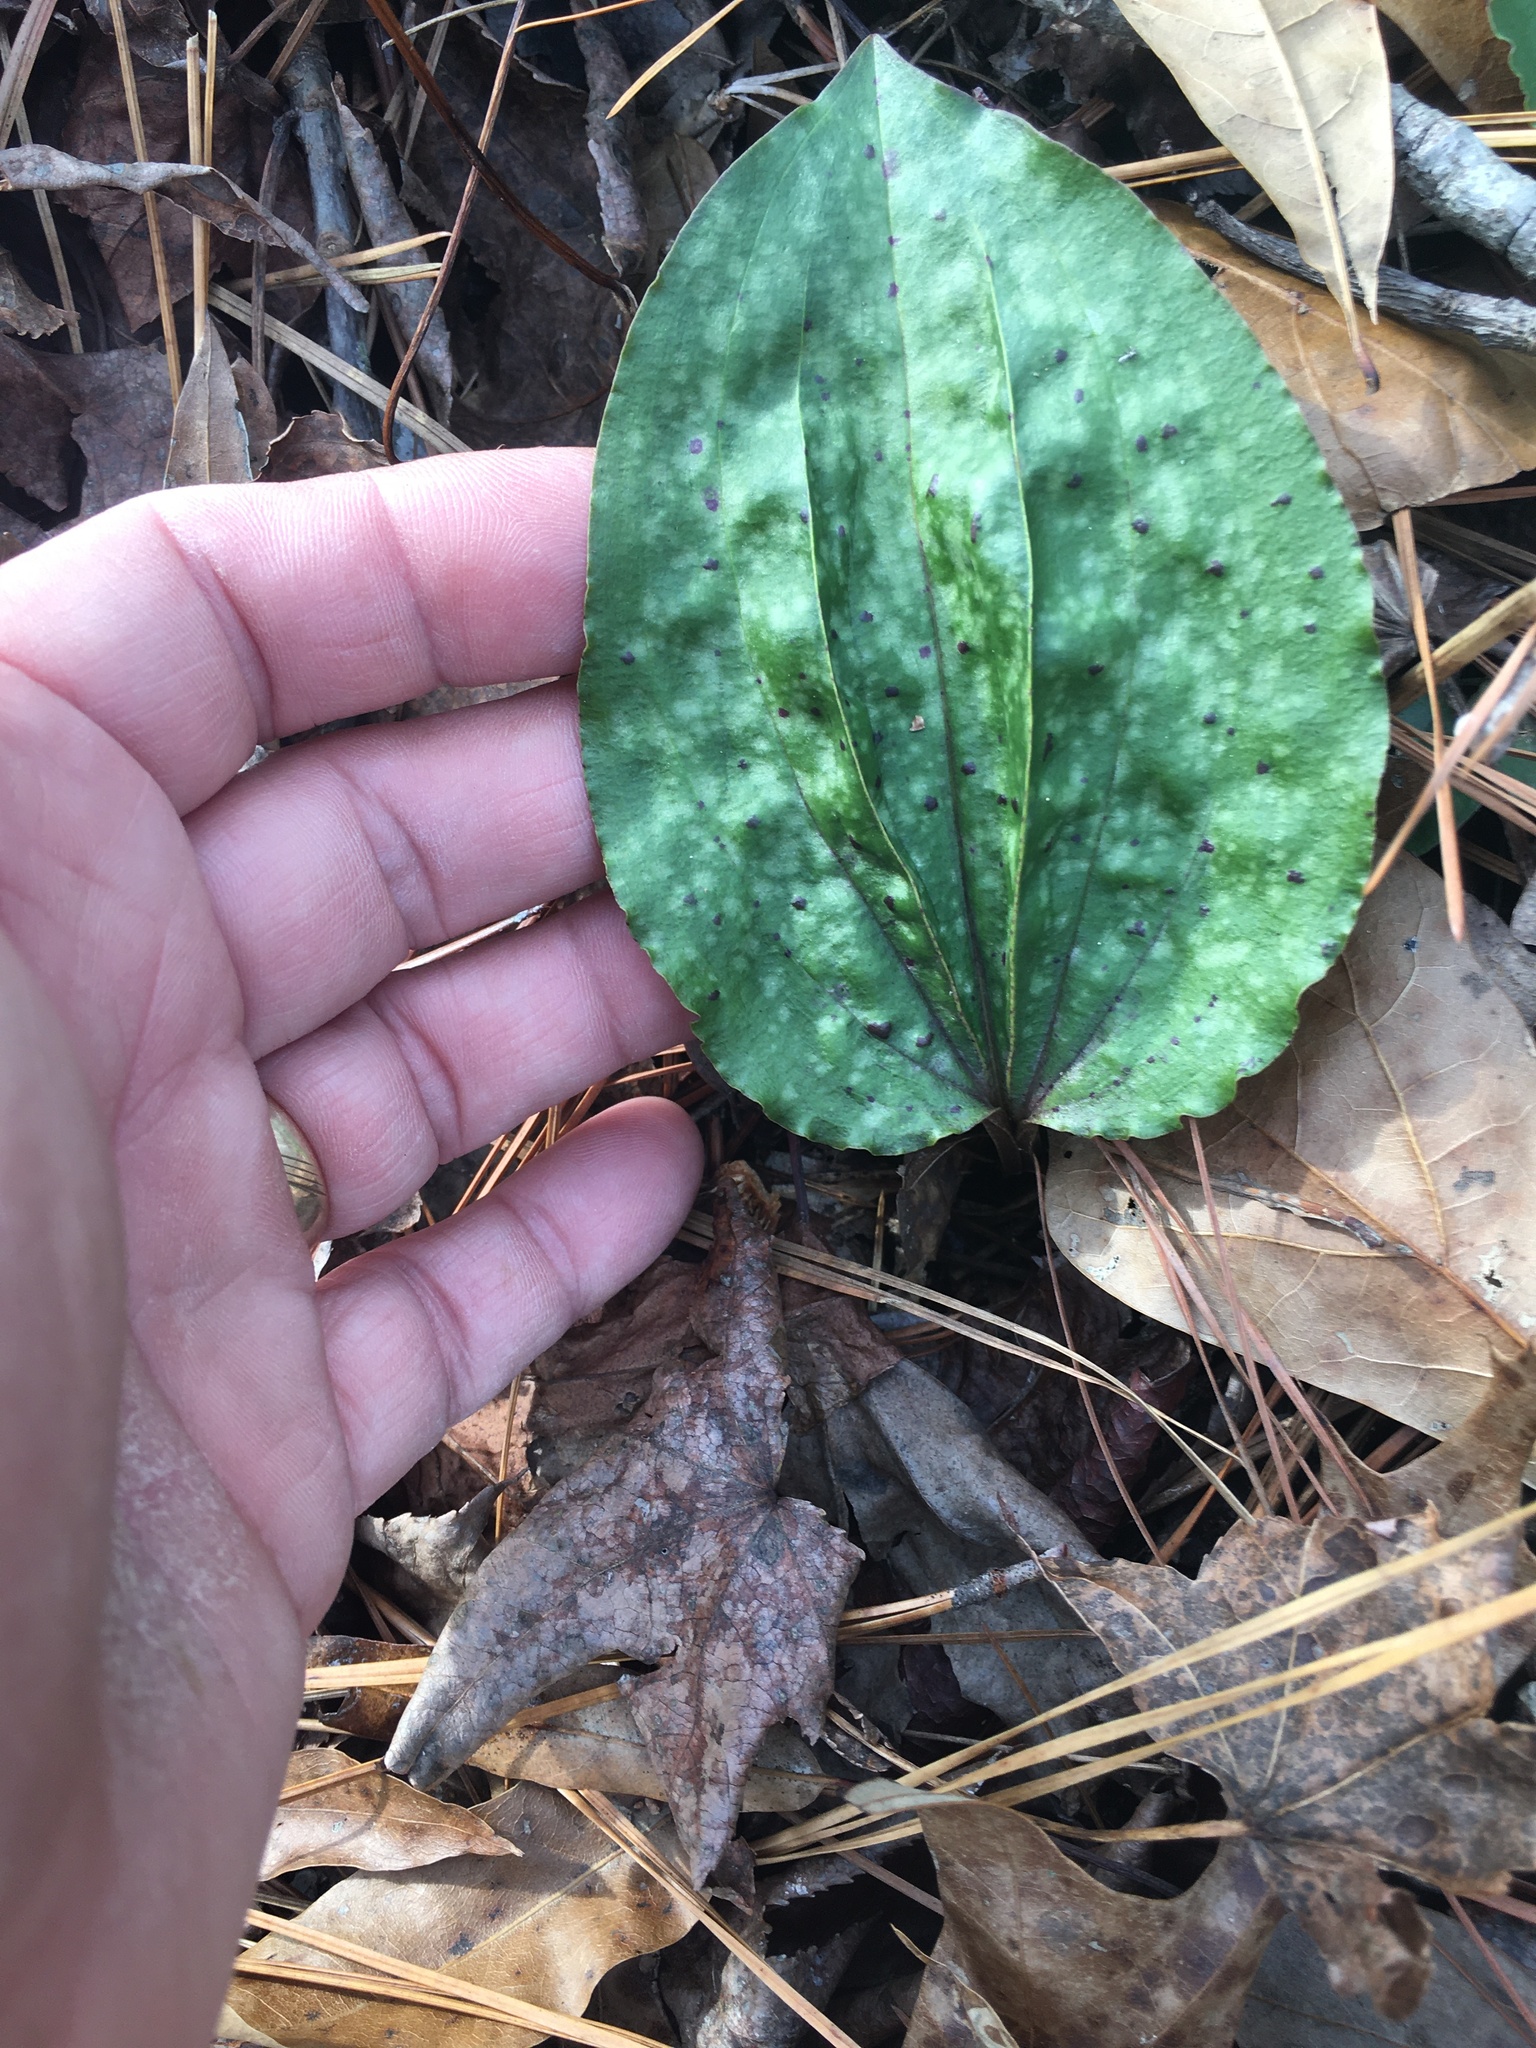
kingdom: Plantae
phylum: Tracheophyta
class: Liliopsida
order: Asparagales
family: Orchidaceae
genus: Tipularia
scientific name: Tipularia discolor
